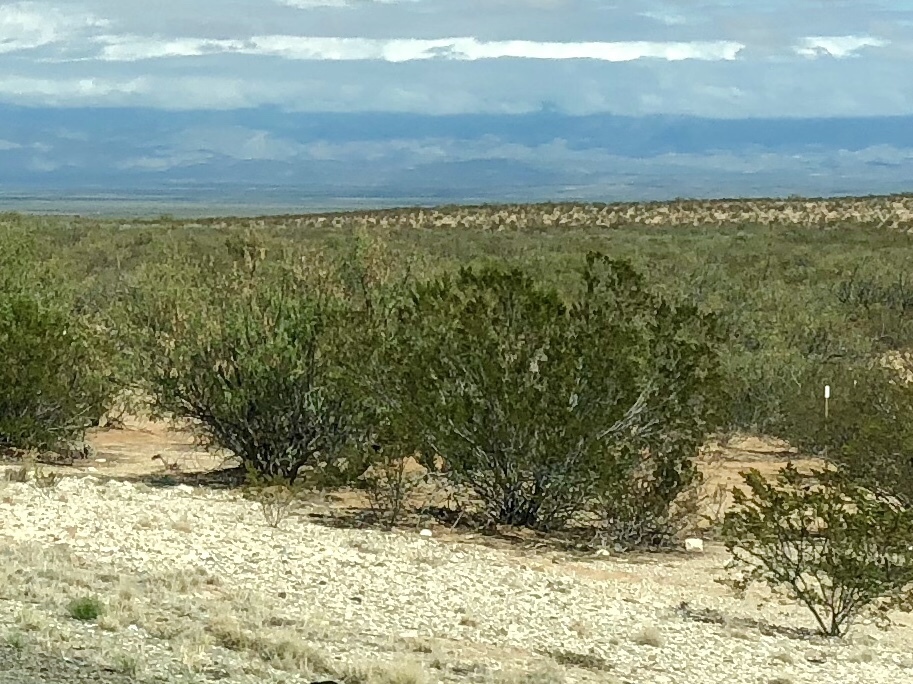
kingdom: Plantae
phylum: Tracheophyta
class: Magnoliopsida
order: Zygophyllales
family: Zygophyllaceae
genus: Larrea
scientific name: Larrea tridentata
